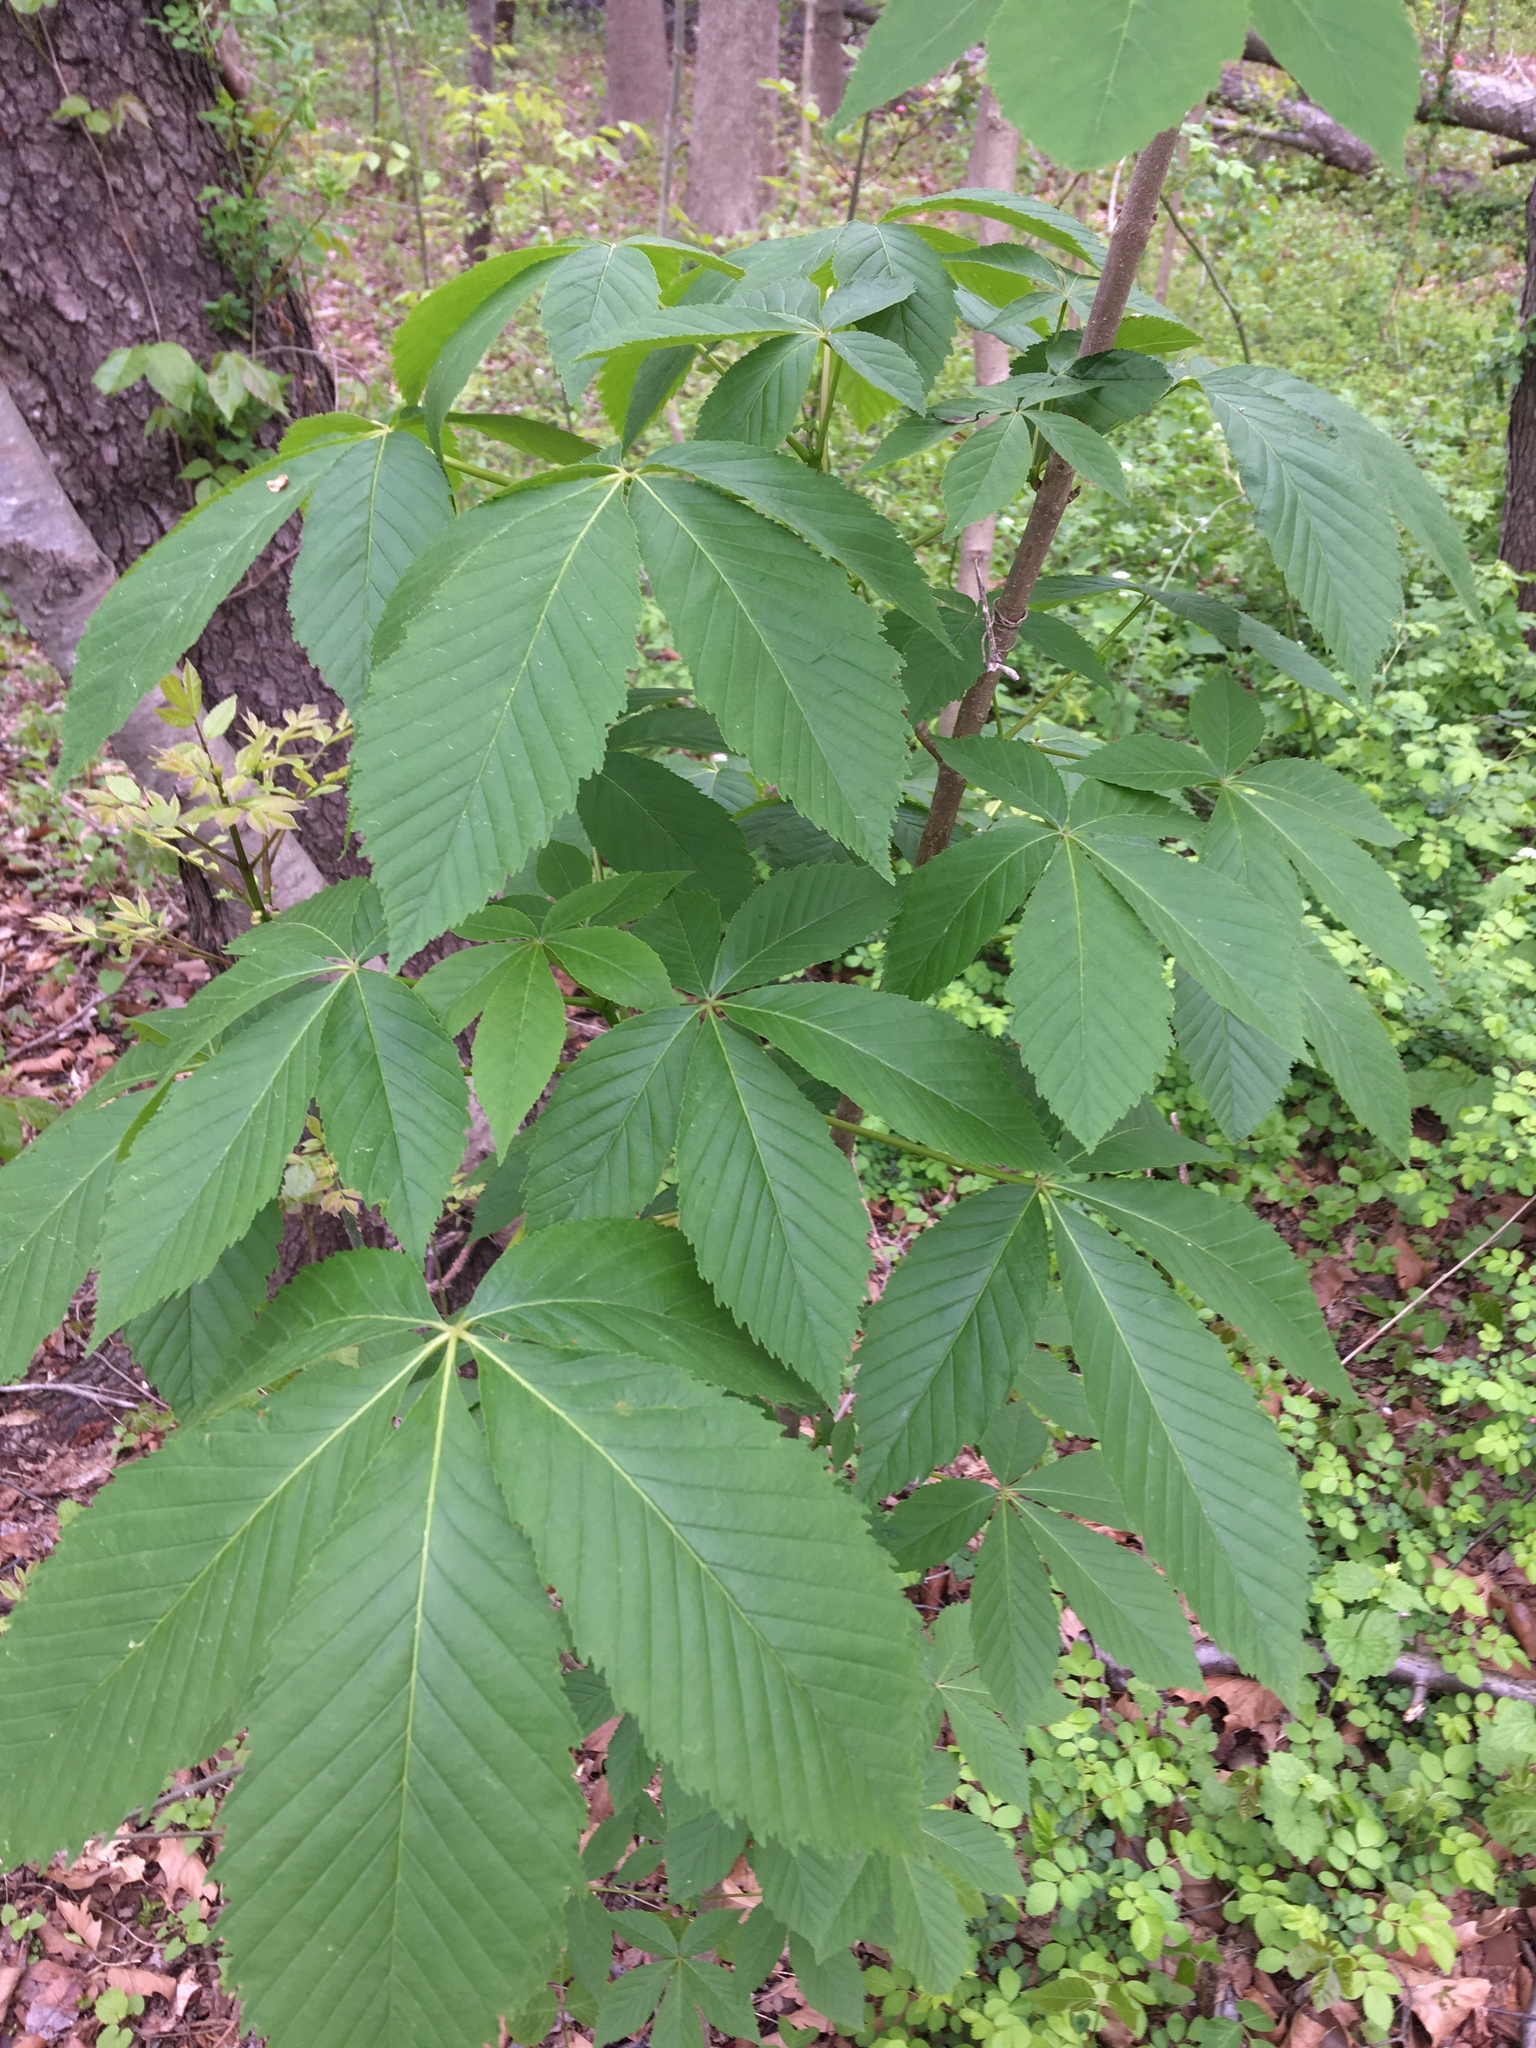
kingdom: Plantae
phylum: Tracheophyta
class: Magnoliopsida
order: Sapindales
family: Sapindaceae
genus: Aesculus
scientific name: Aesculus glabra
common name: Ohio buckeye
